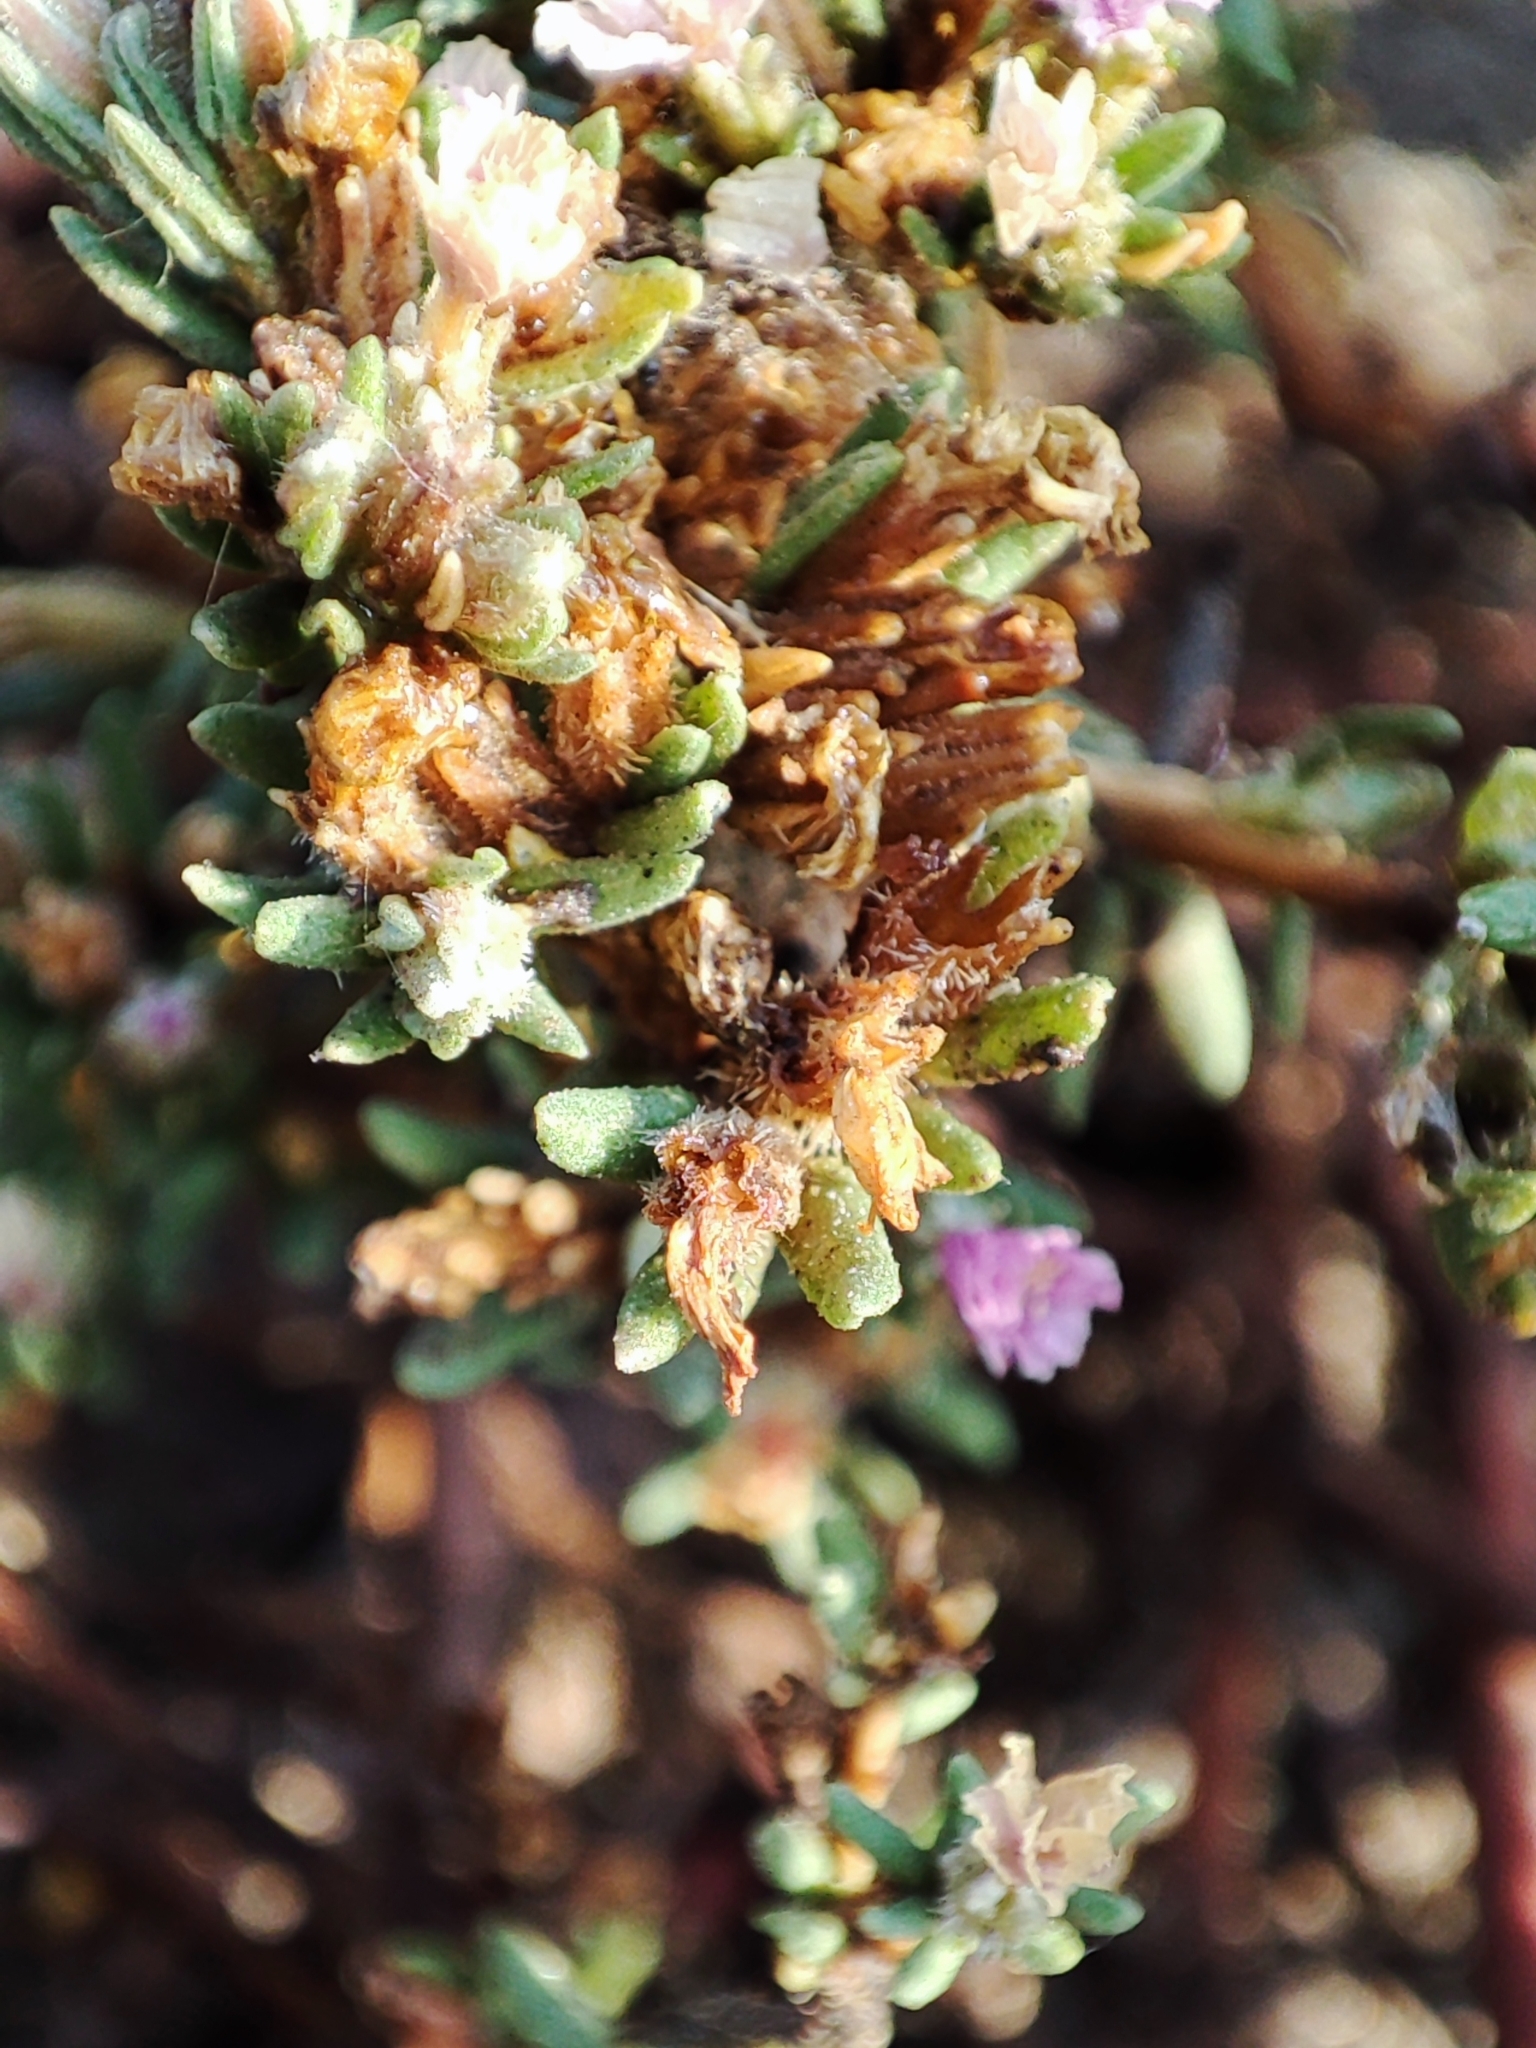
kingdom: Plantae
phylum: Tracheophyta
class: Magnoliopsida
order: Caryophyllales
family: Frankeniaceae
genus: Frankenia
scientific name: Frankenia hirsuta
